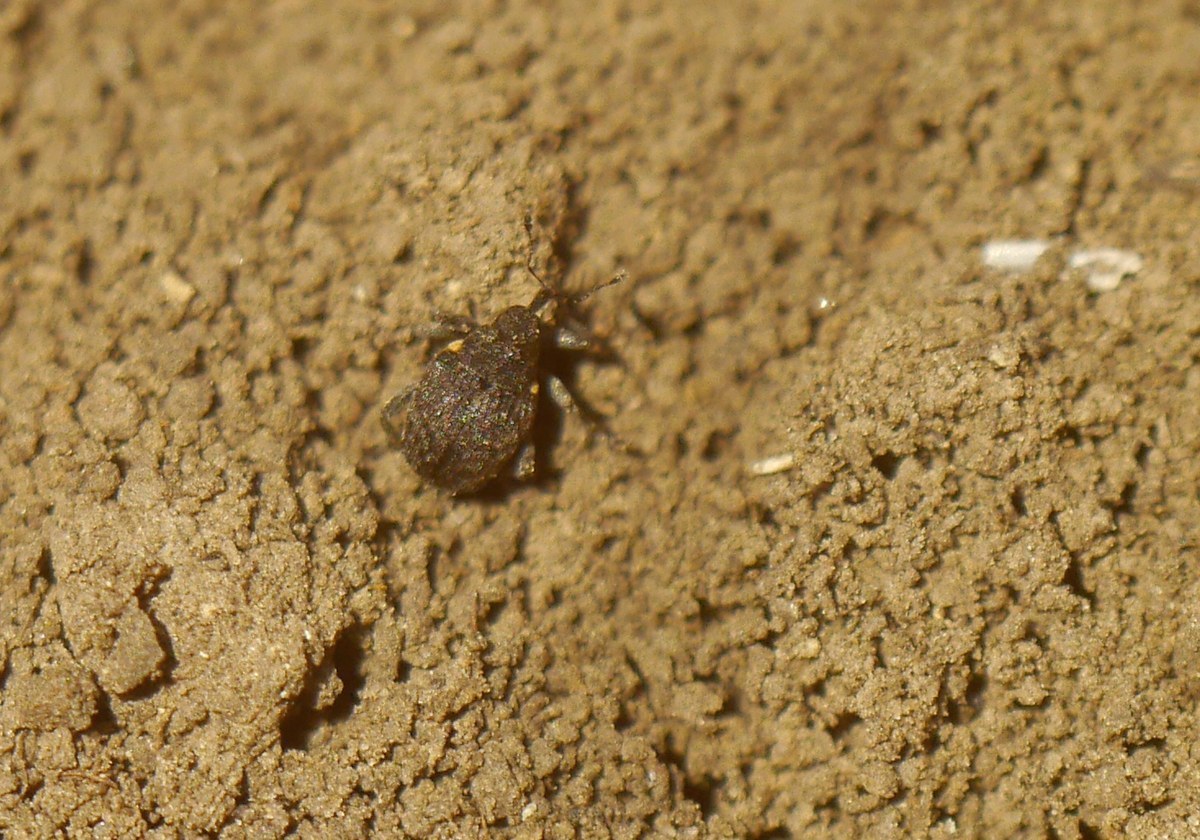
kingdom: Animalia
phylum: Arthropoda
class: Insecta
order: Coleoptera
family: Curculionidae
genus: Ranunculiphilus
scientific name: Ranunculiphilus faeculentus
